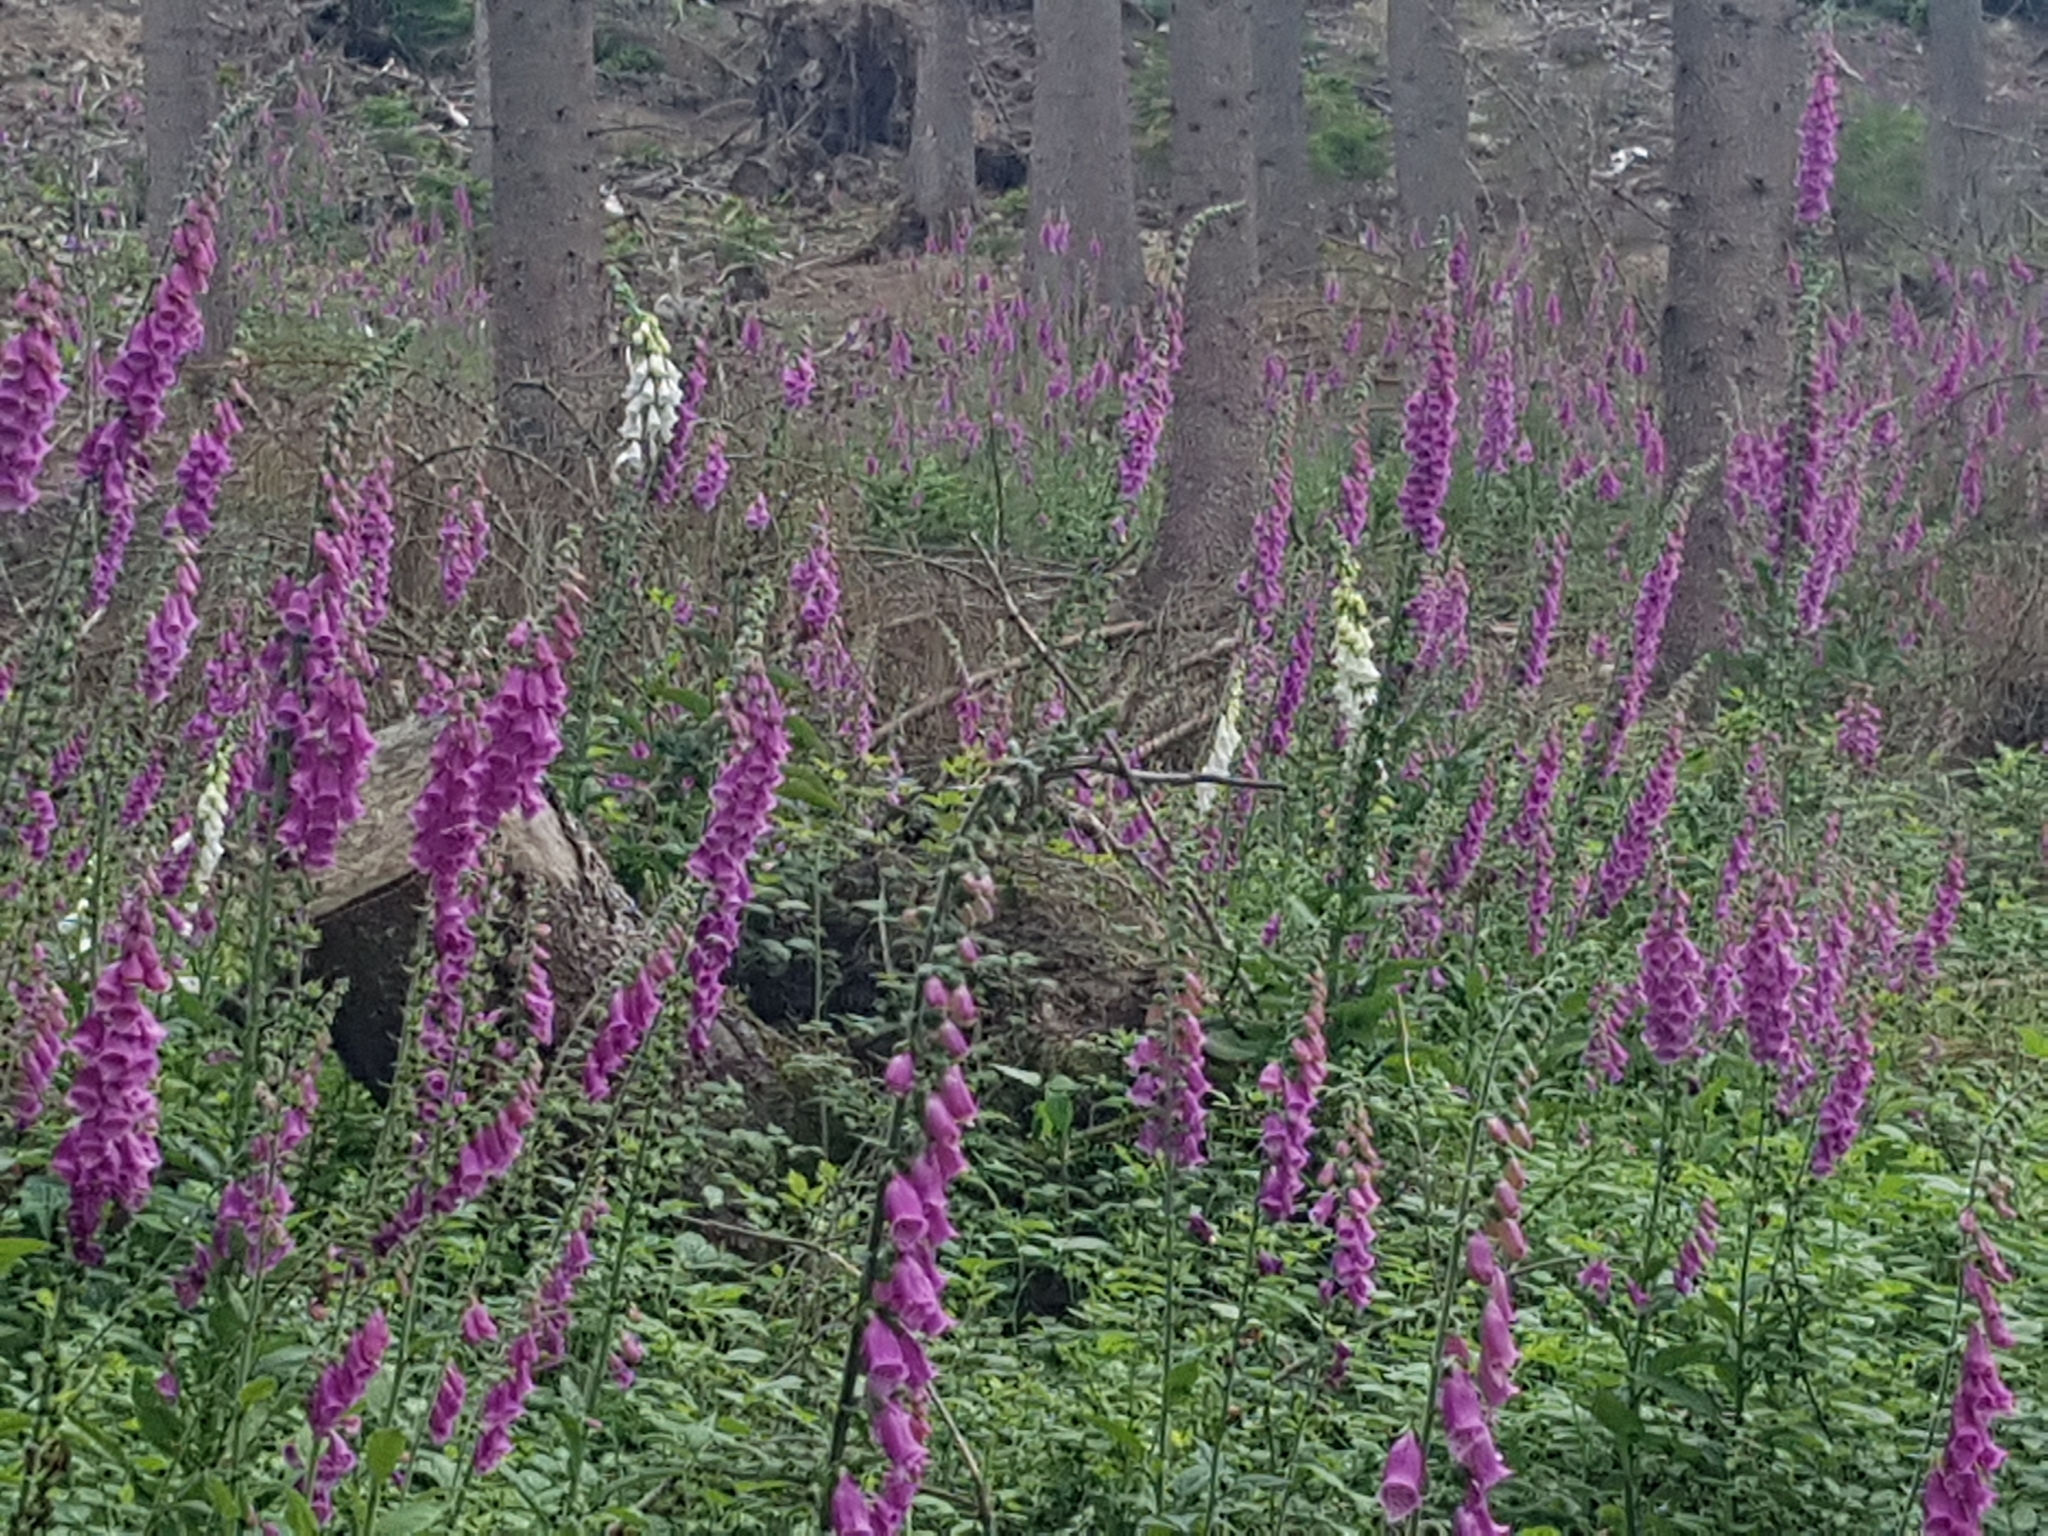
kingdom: Plantae
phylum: Tracheophyta
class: Magnoliopsida
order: Lamiales
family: Plantaginaceae
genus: Digitalis
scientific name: Digitalis purpurea
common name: Foxglove
